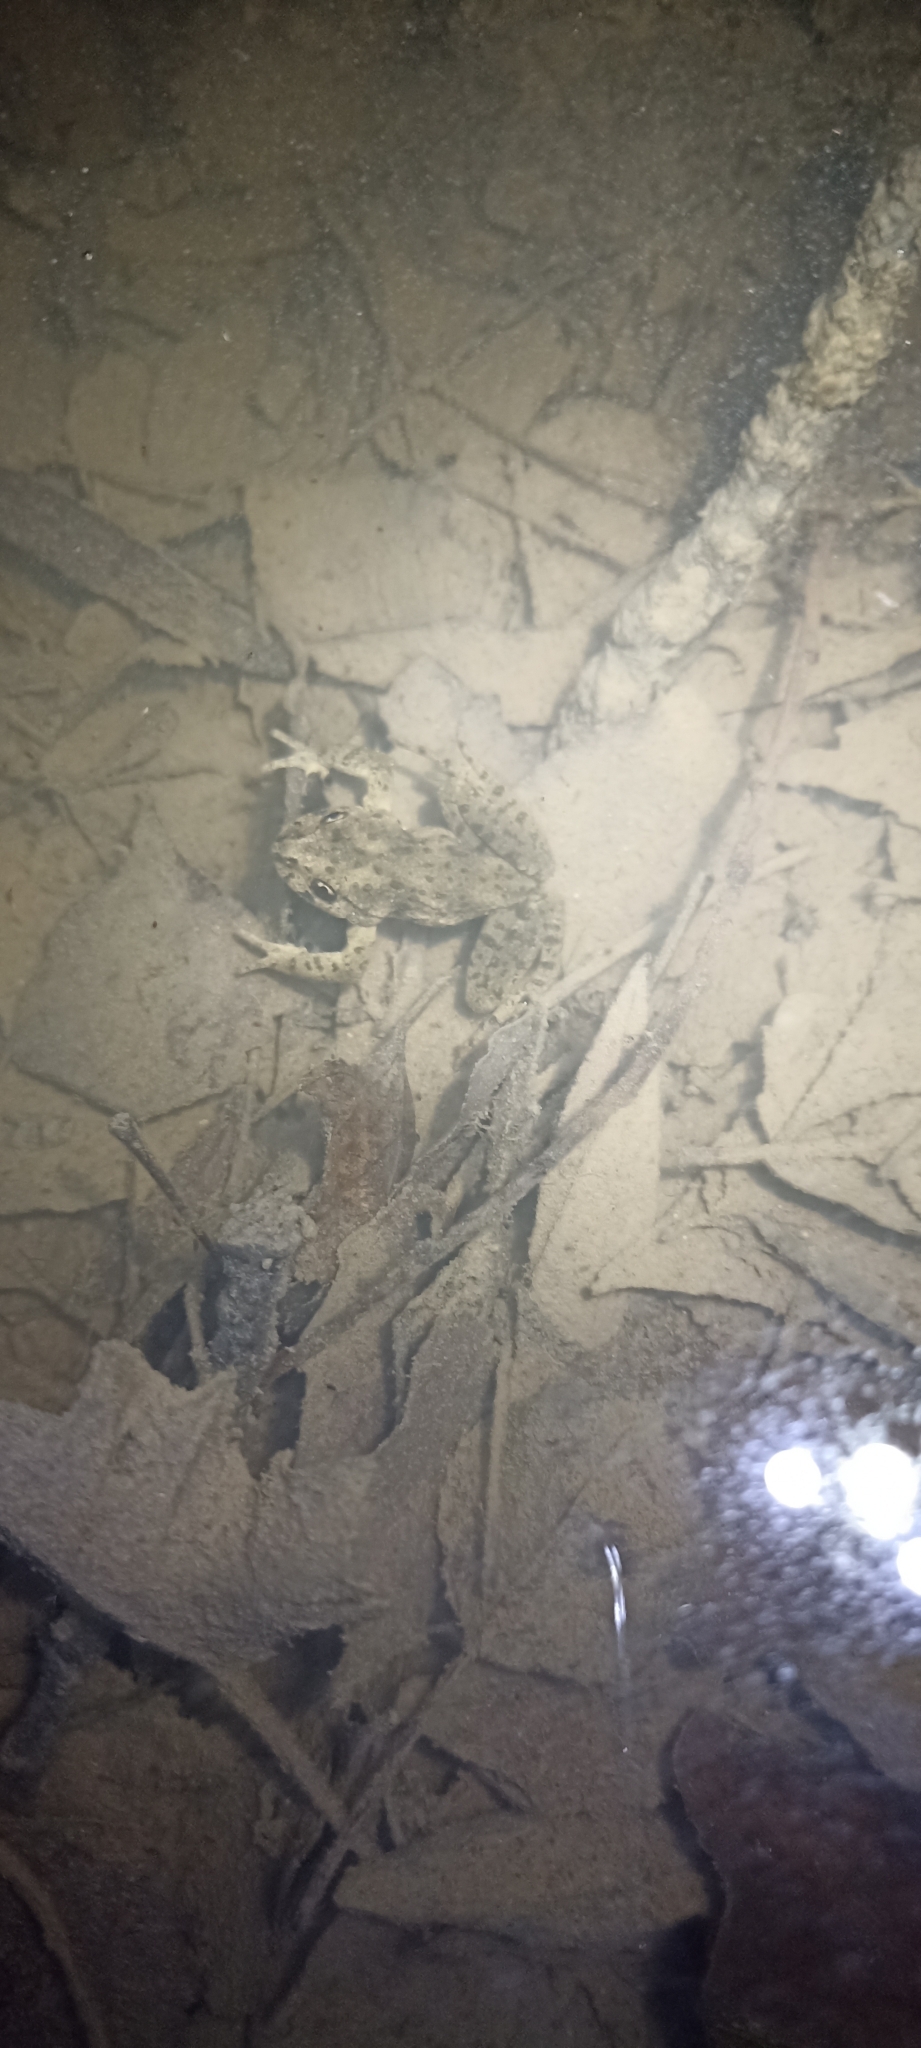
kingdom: Animalia
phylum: Chordata
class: Amphibia
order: Anura
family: Pelodytidae
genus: Pelodytes
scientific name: Pelodytes punctatus
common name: Parsley frog
